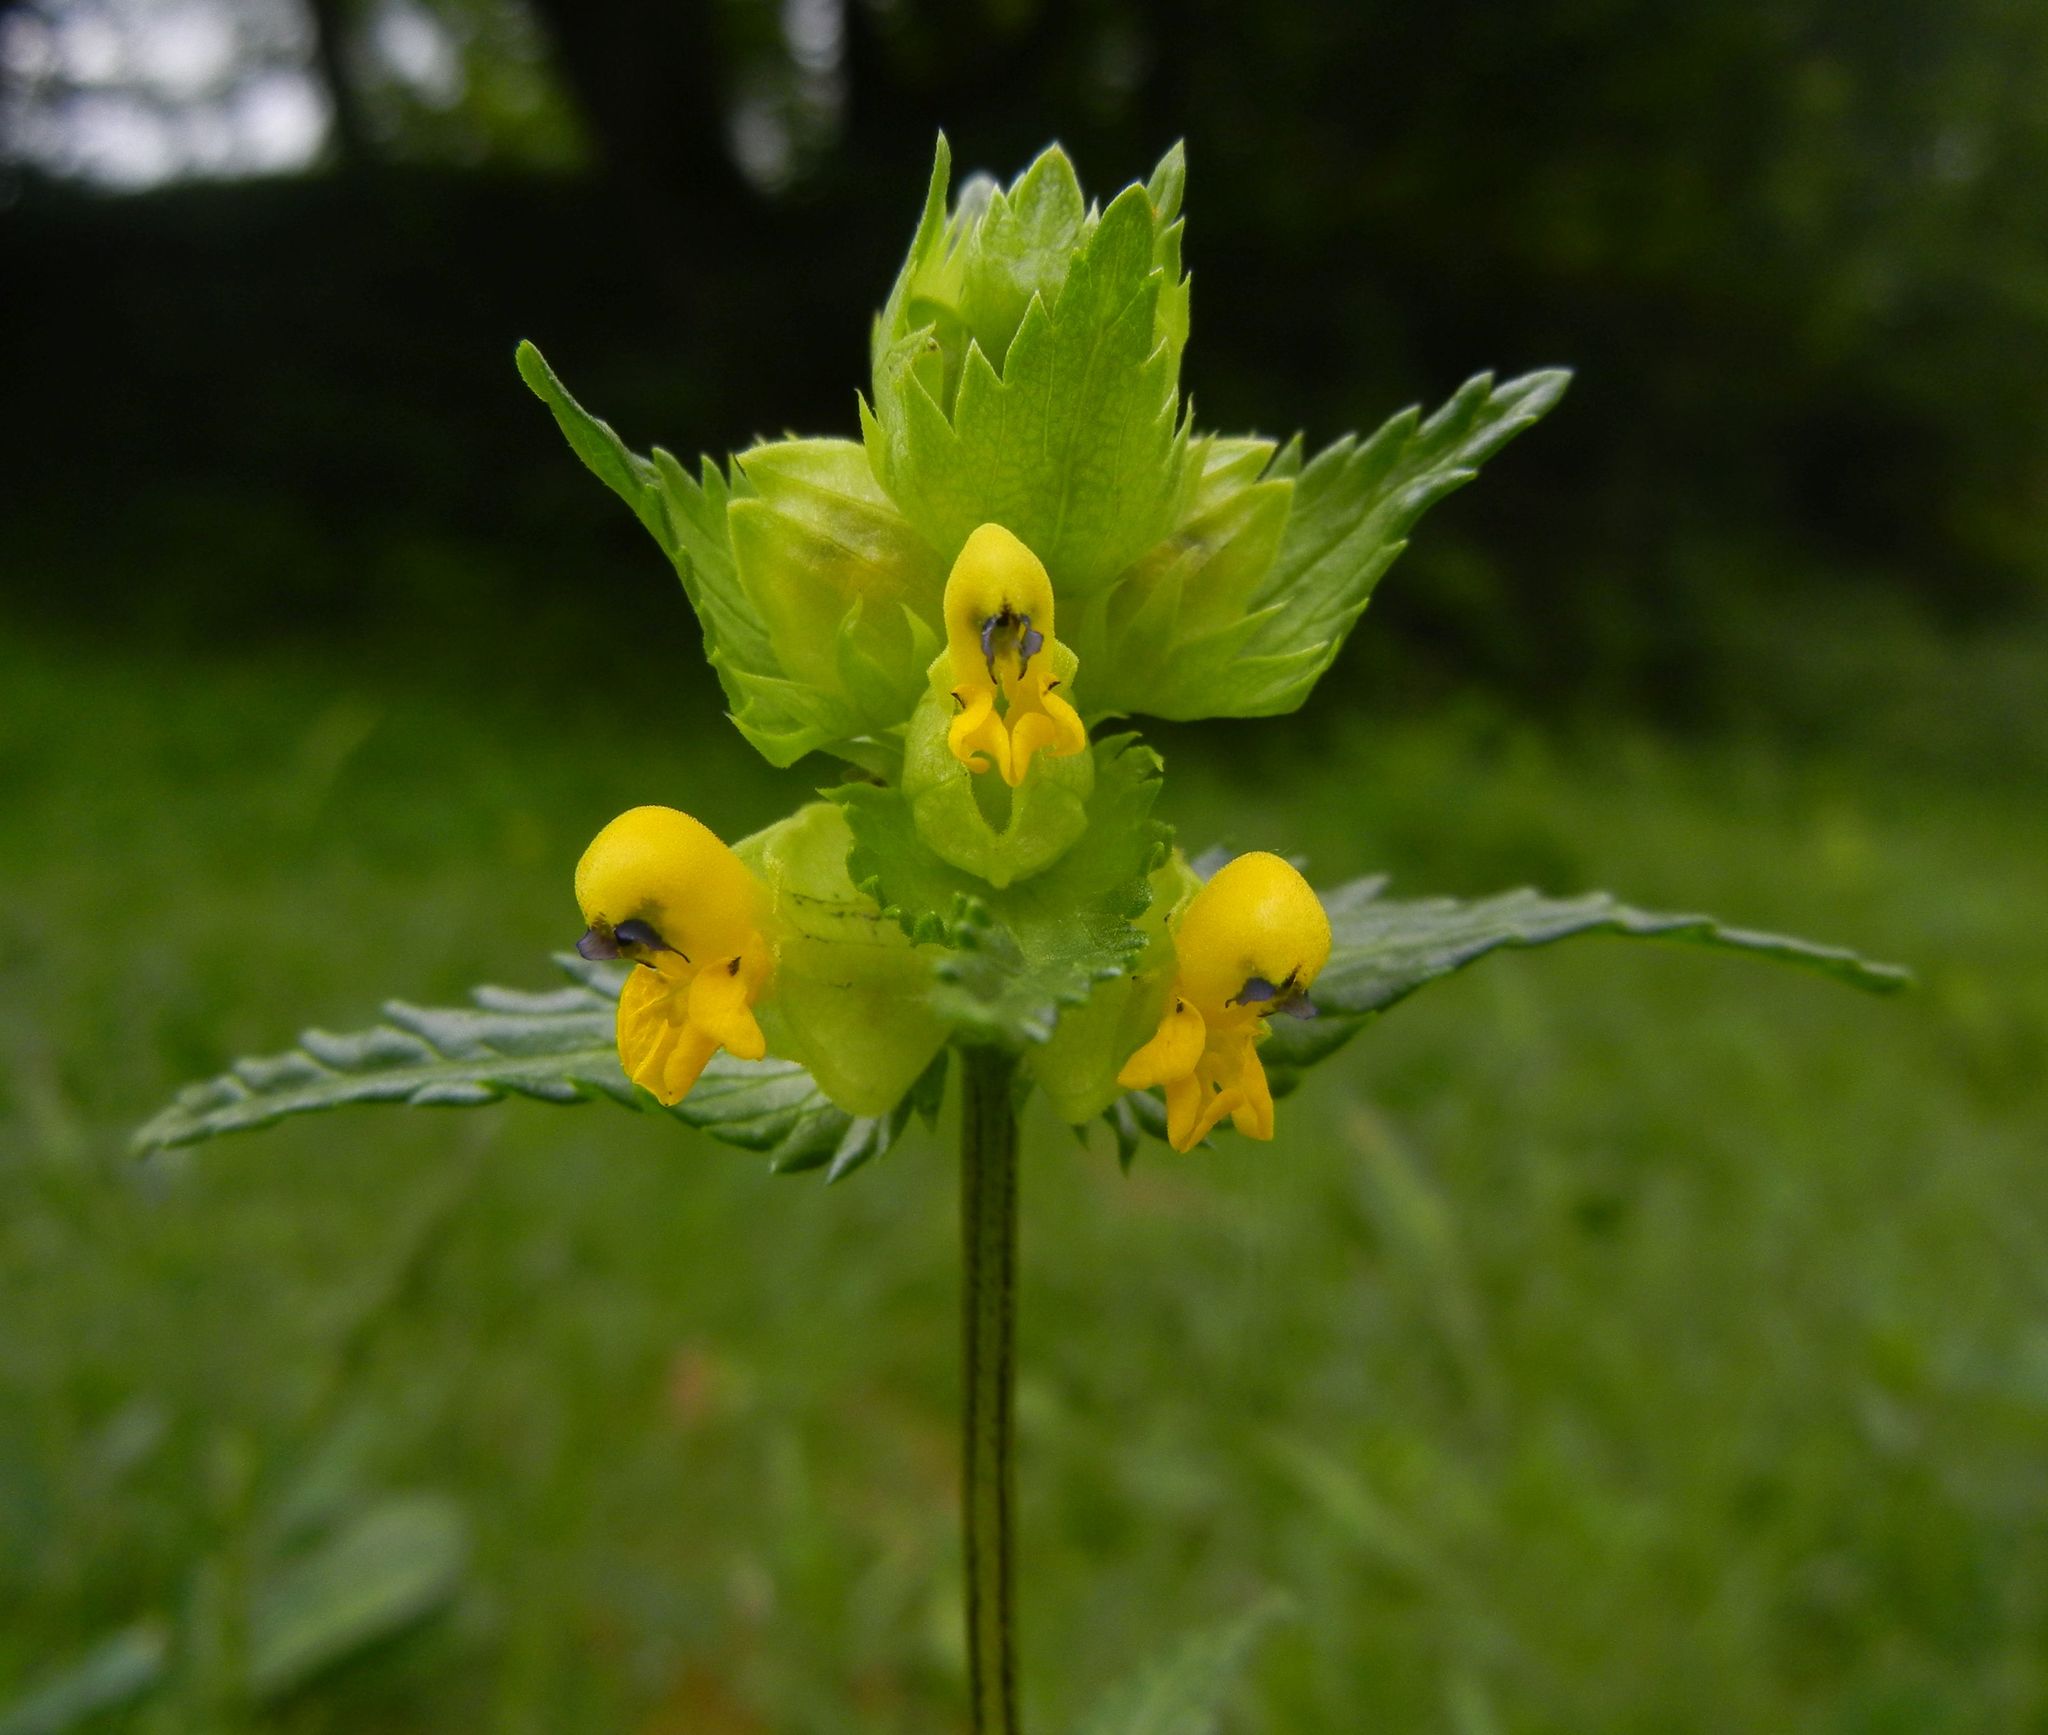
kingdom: Plantae
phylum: Tracheophyta
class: Magnoliopsida
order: Lamiales
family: Orobanchaceae
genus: Rhinanthus
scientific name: Rhinanthus minor
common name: Yellow-rattle
